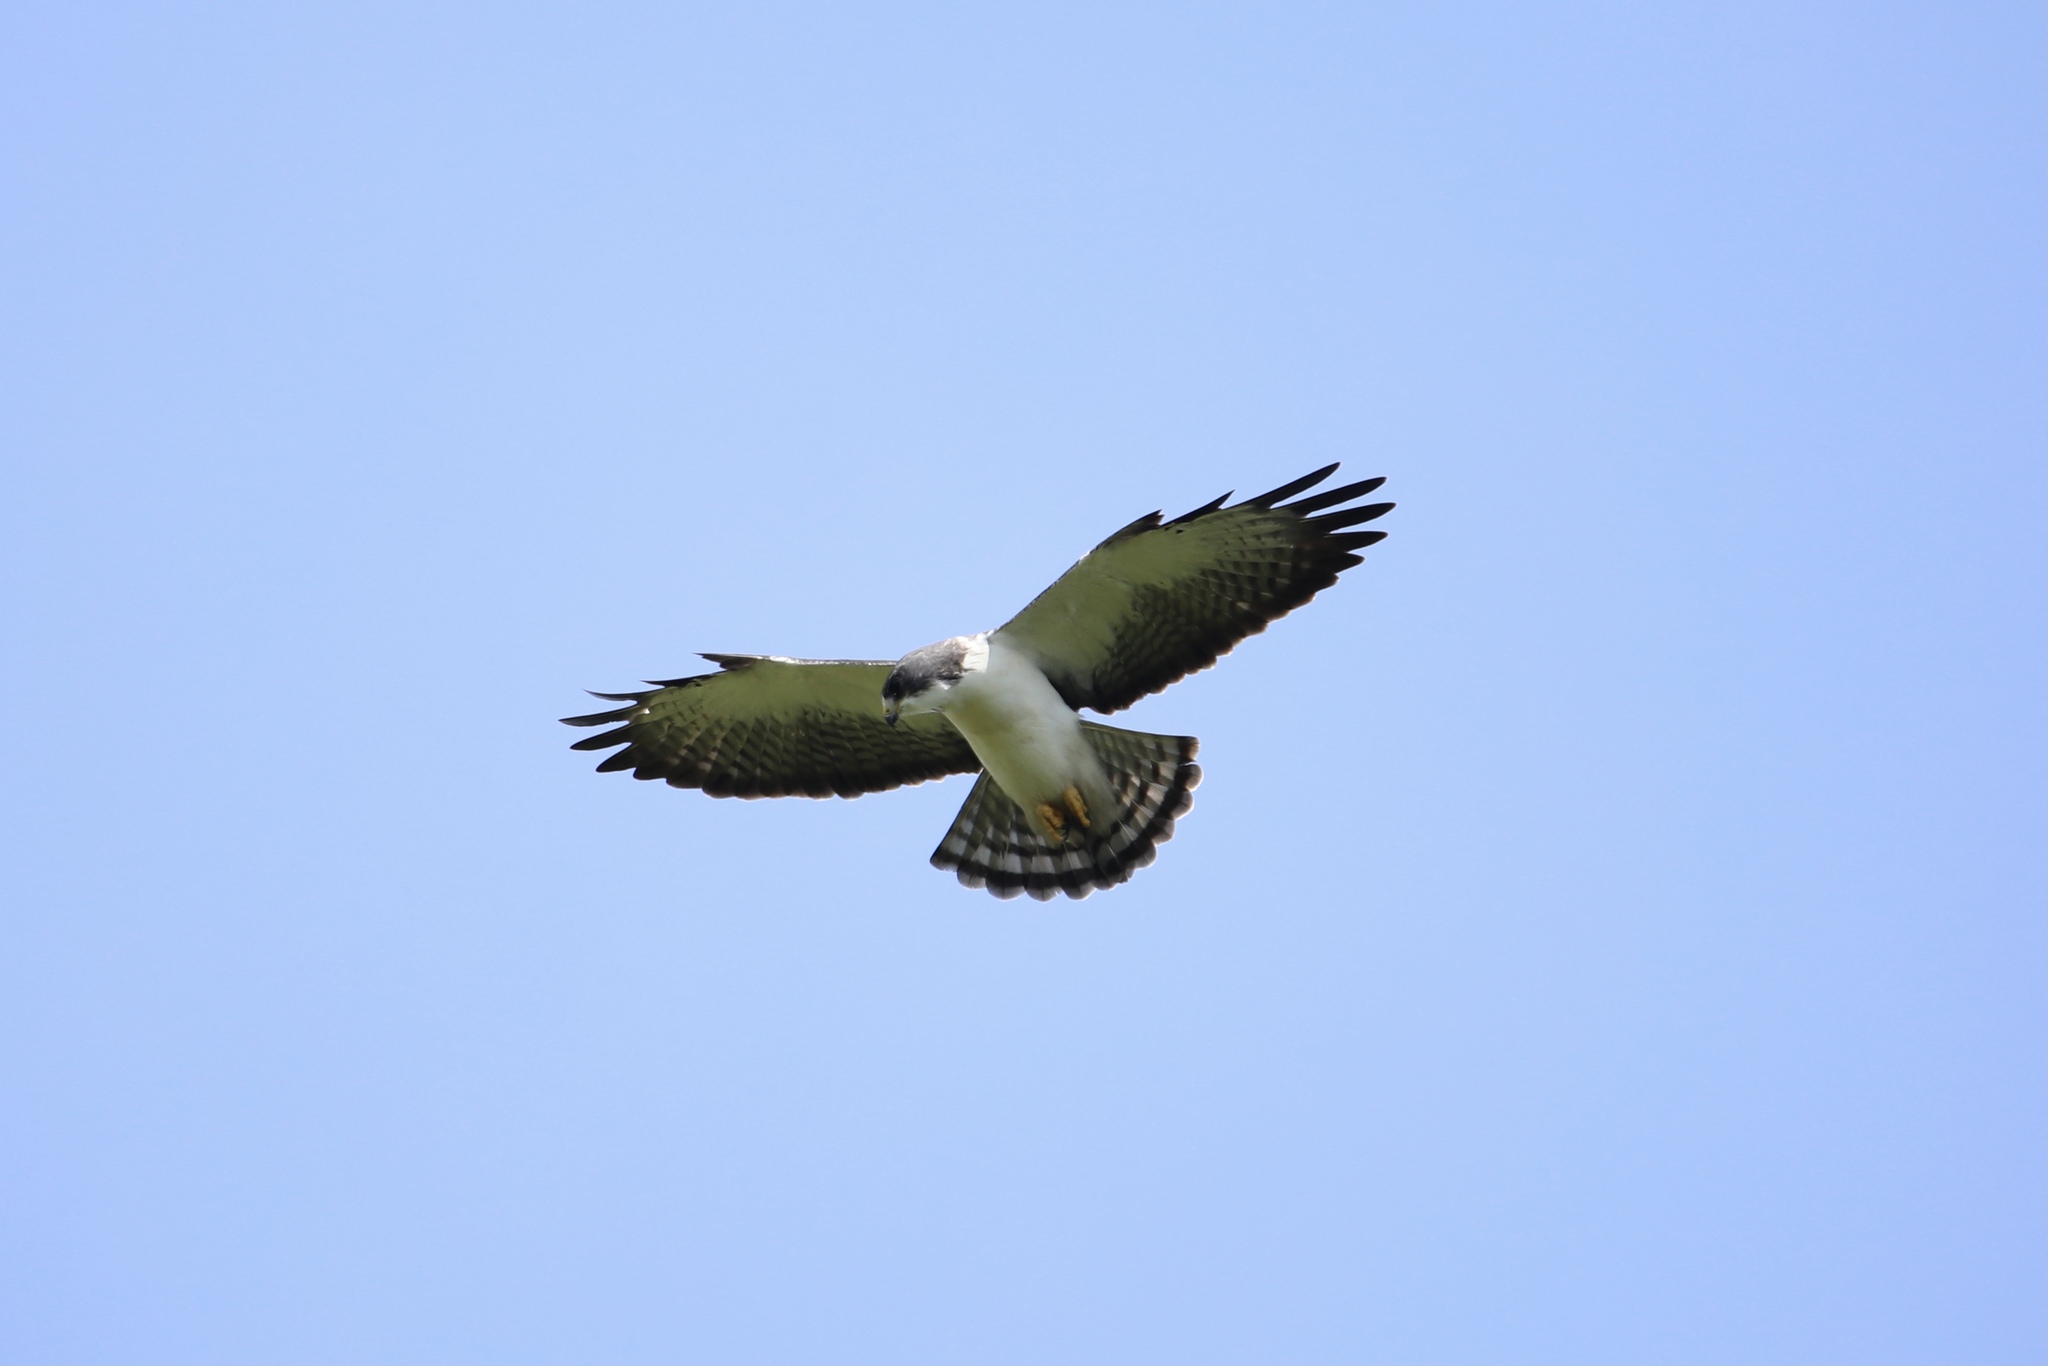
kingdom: Animalia
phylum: Chordata
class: Aves
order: Accipitriformes
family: Accipitridae
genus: Buteo
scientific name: Buteo brachyurus
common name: Short-tailed hawk
